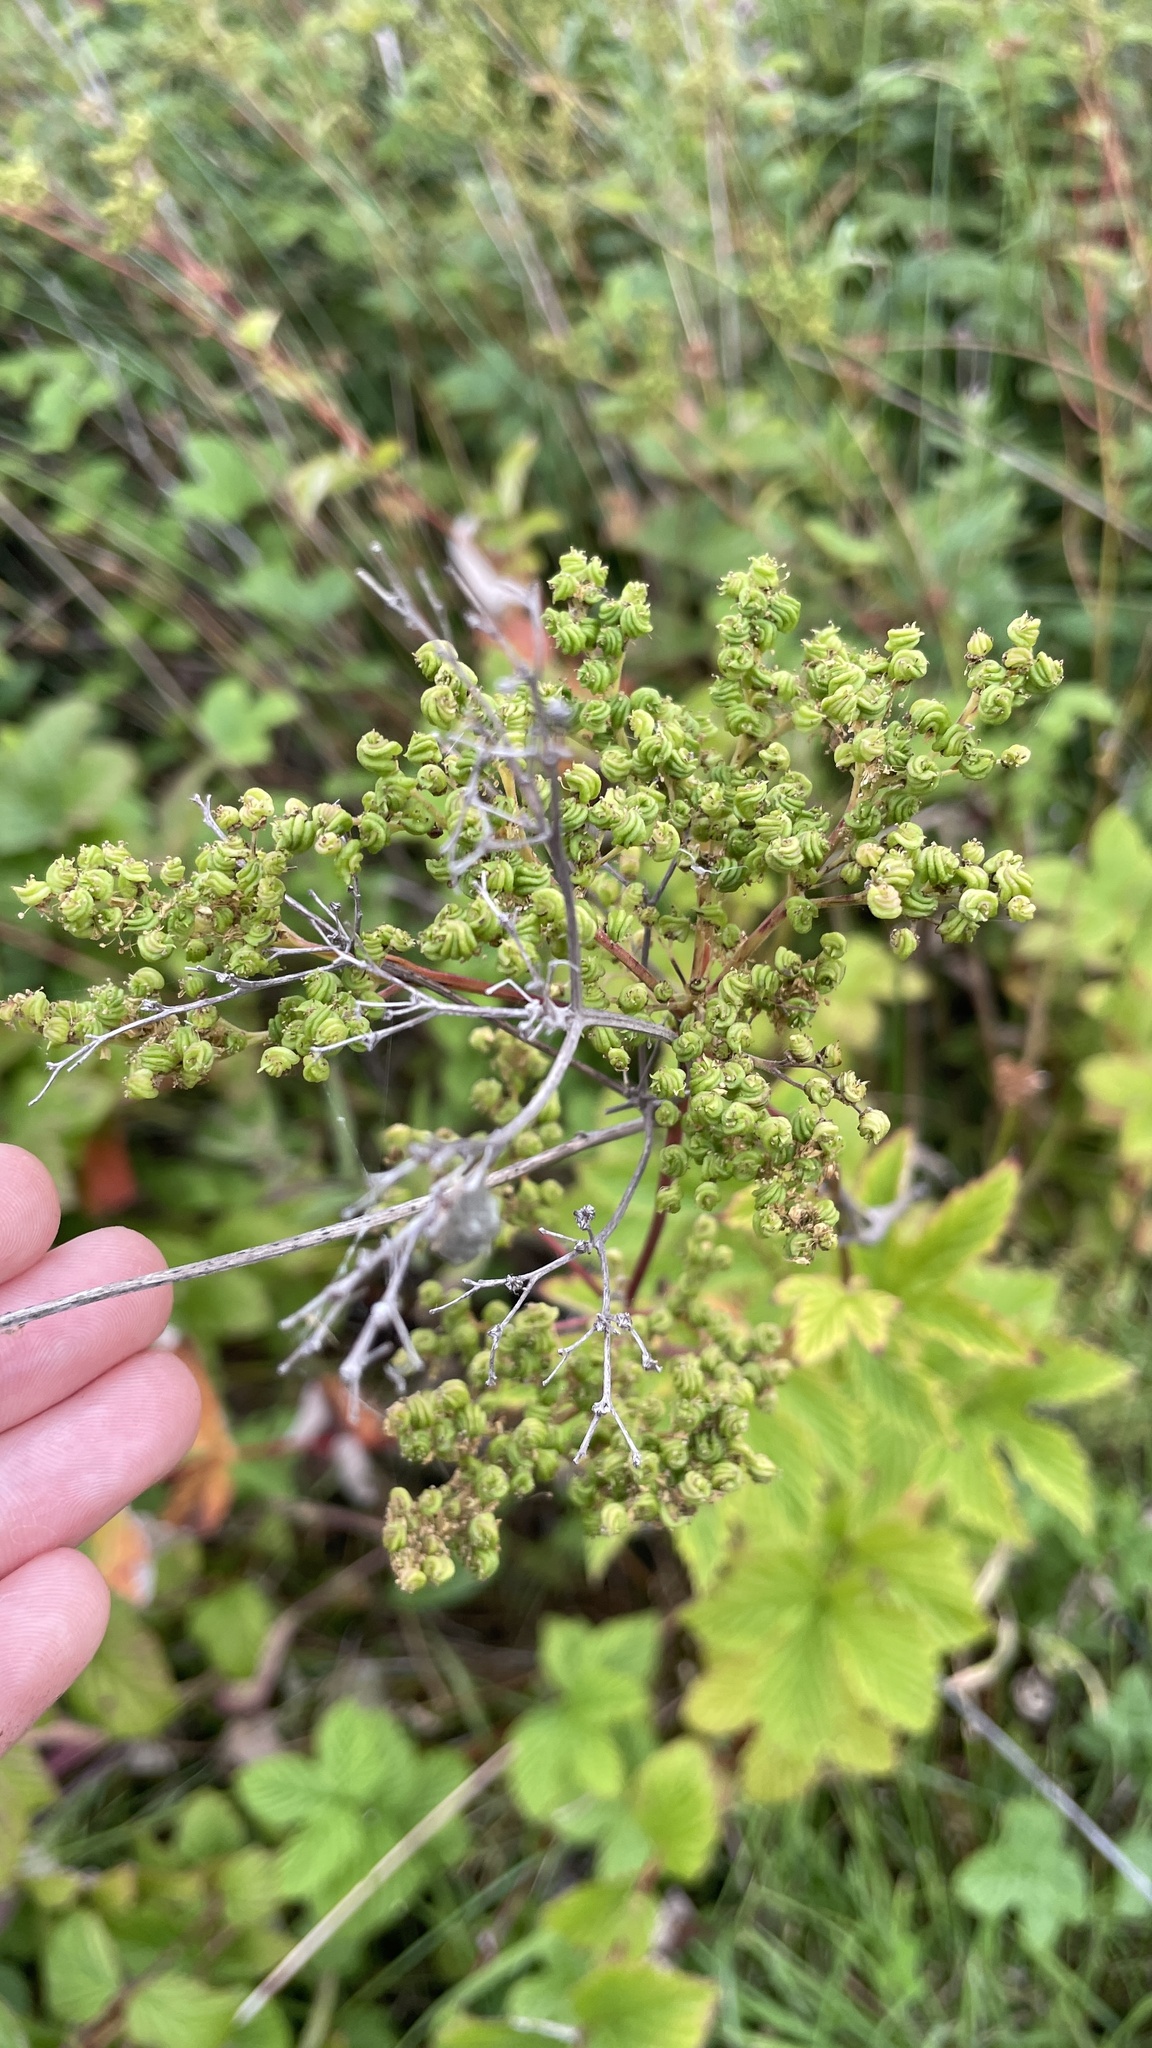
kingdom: Plantae
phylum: Tracheophyta
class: Magnoliopsida
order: Rosales
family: Rosaceae
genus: Filipendula
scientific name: Filipendula ulmaria
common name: Meadowsweet
